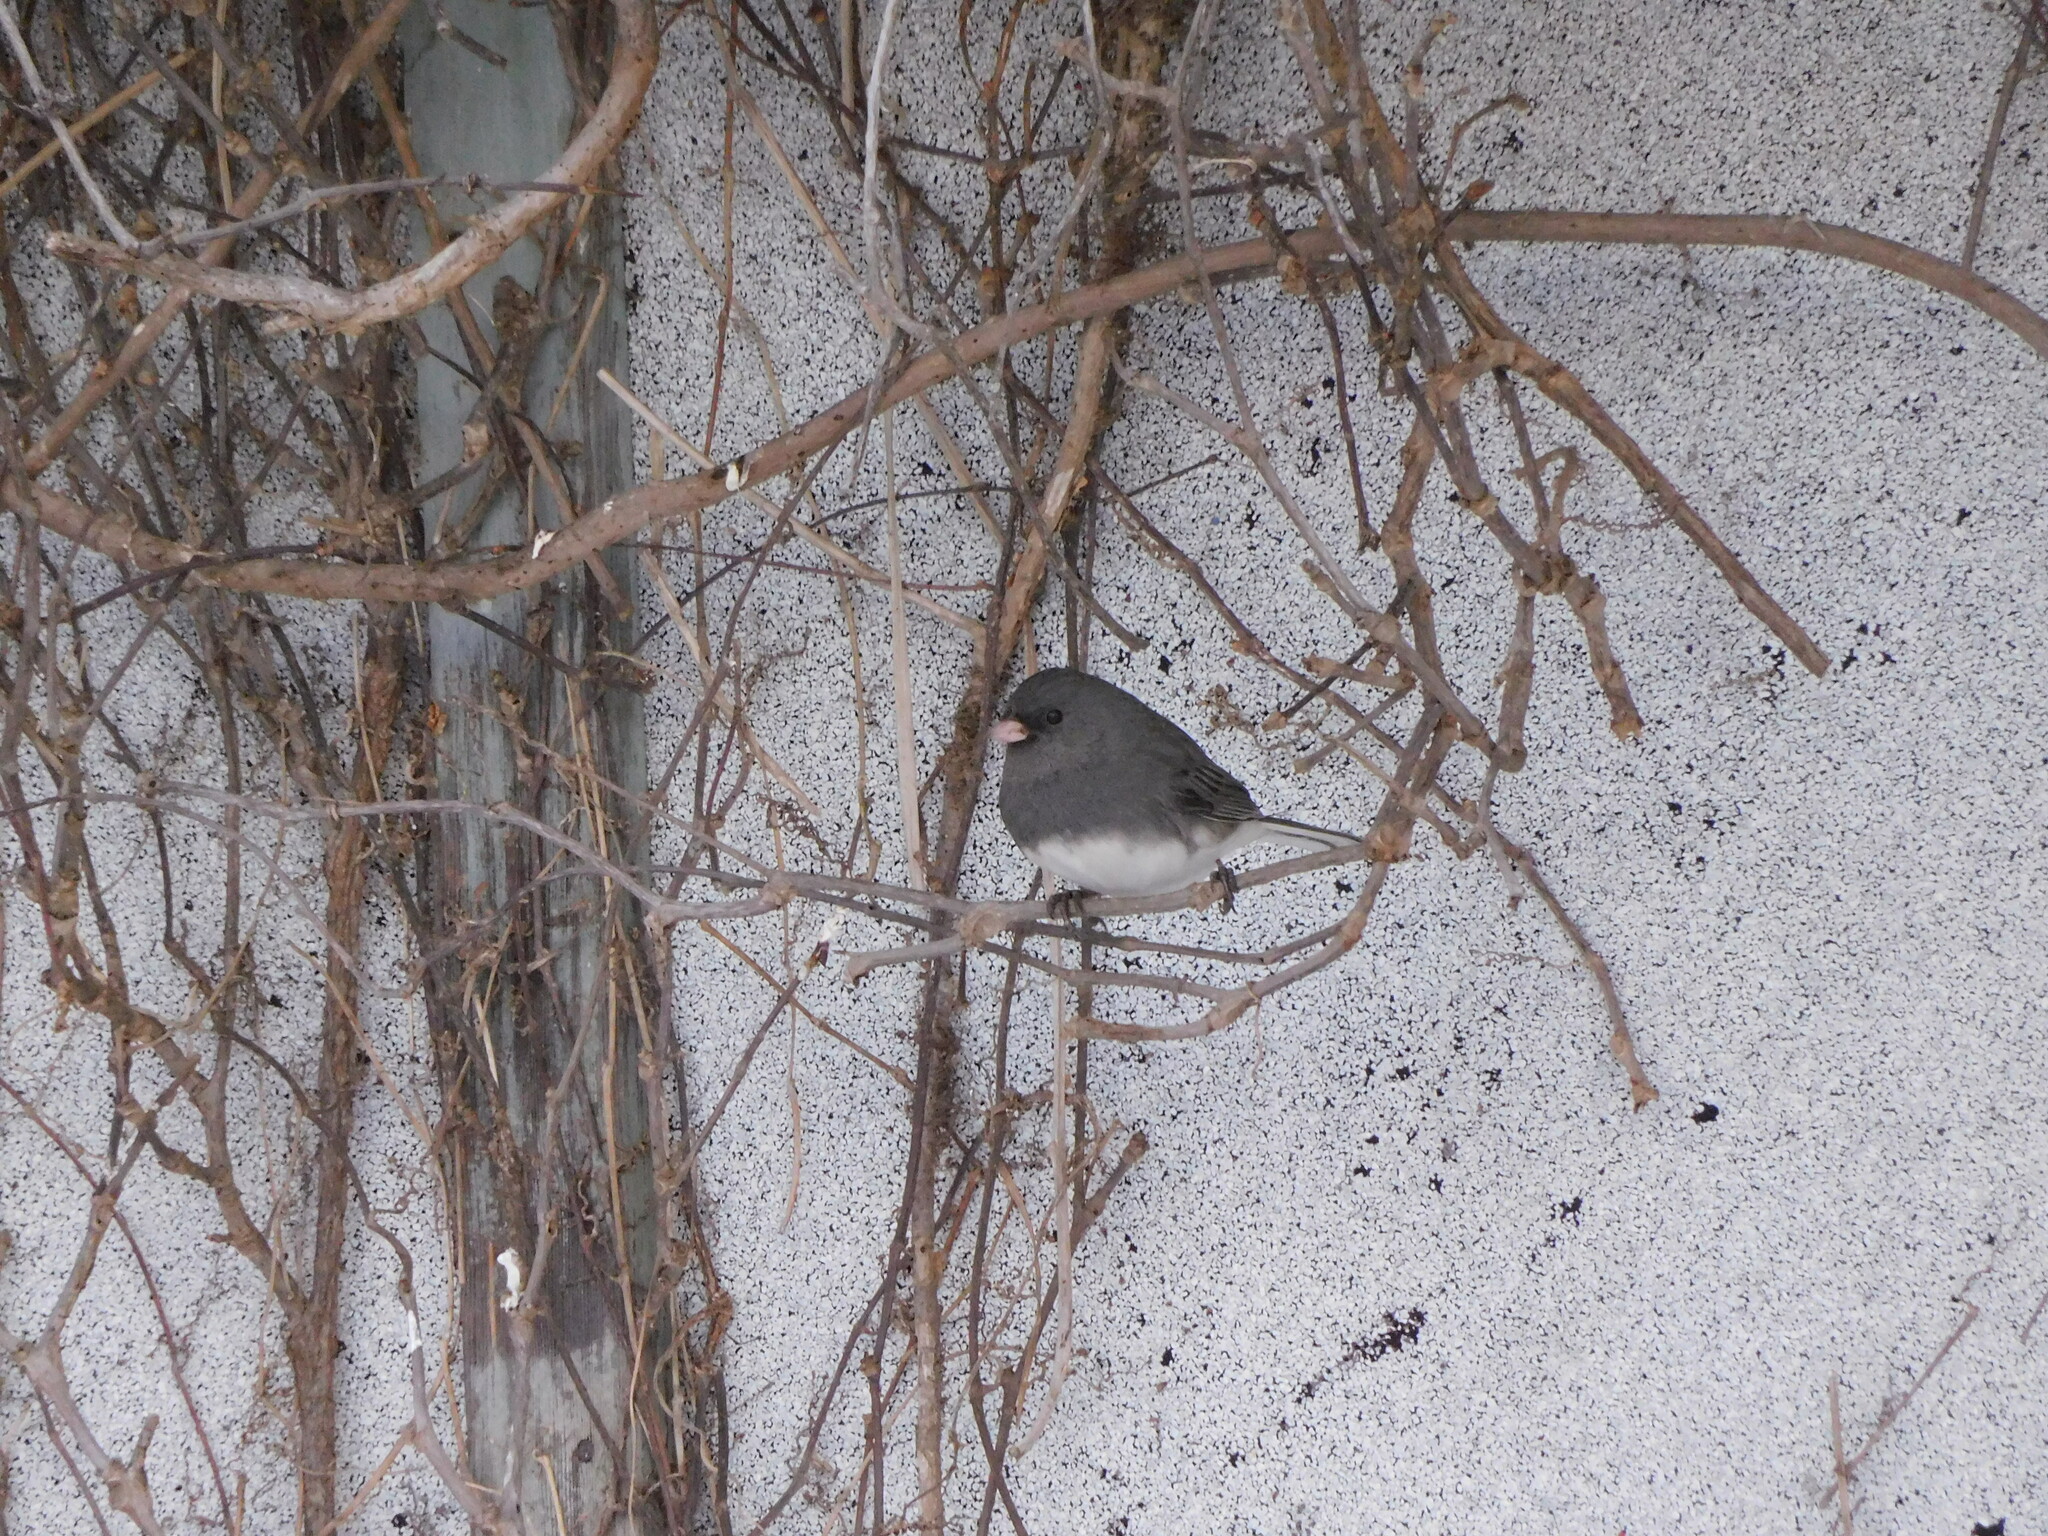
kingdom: Animalia
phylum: Chordata
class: Aves
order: Passeriformes
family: Passerellidae
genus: Junco
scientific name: Junco hyemalis
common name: Dark-eyed junco
